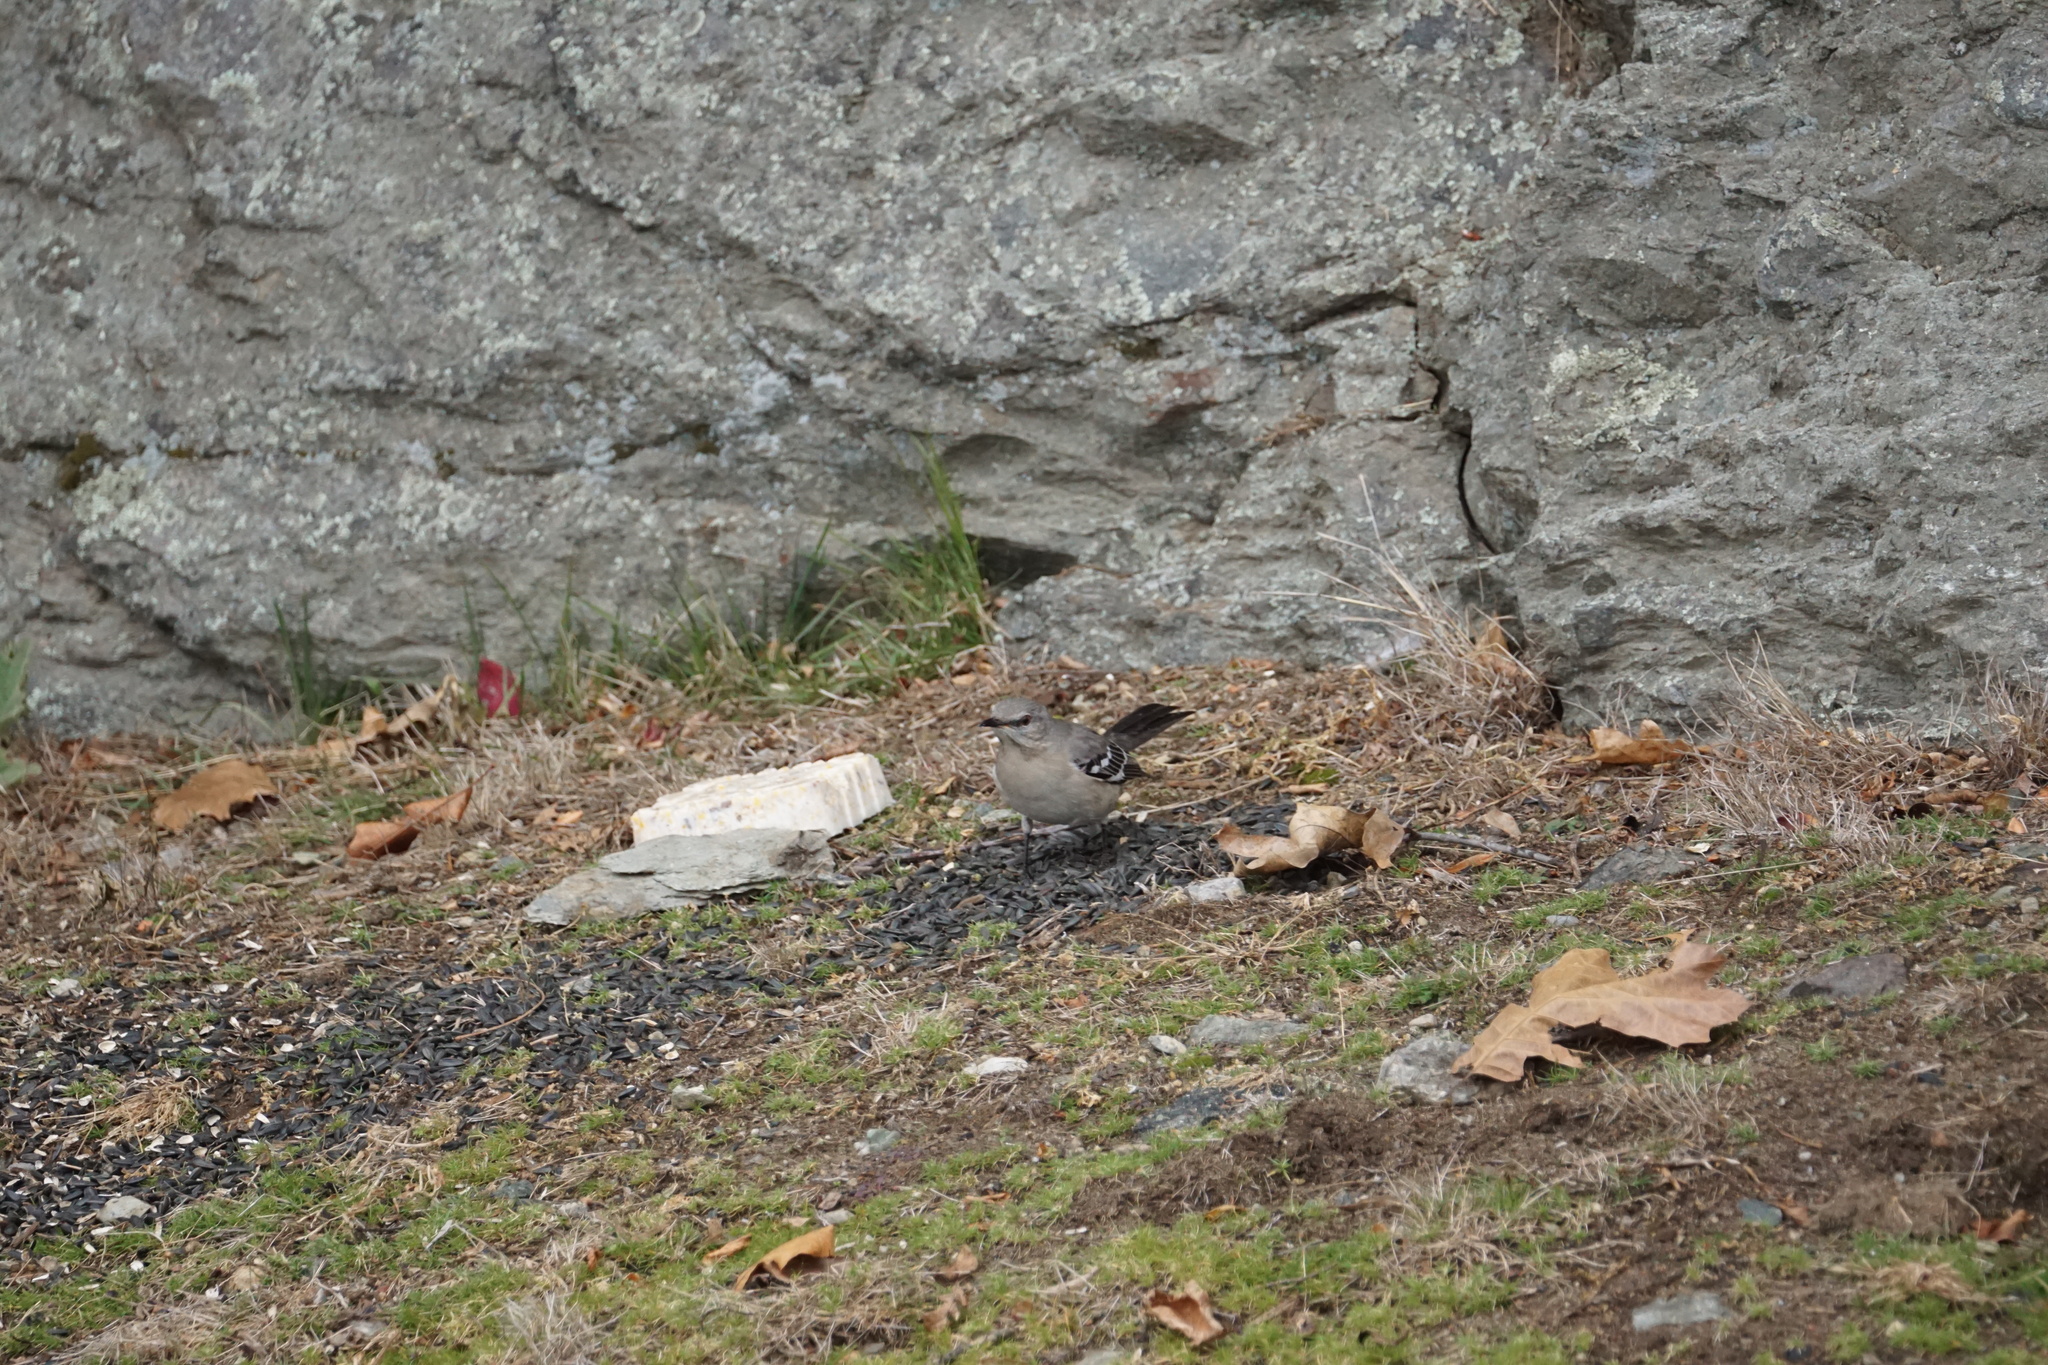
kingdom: Animalia
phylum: Chordata
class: Aves
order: Passeriformes
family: Mimidae
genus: Mimus
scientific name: Mimus polyglottos
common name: Northern mockingbird
